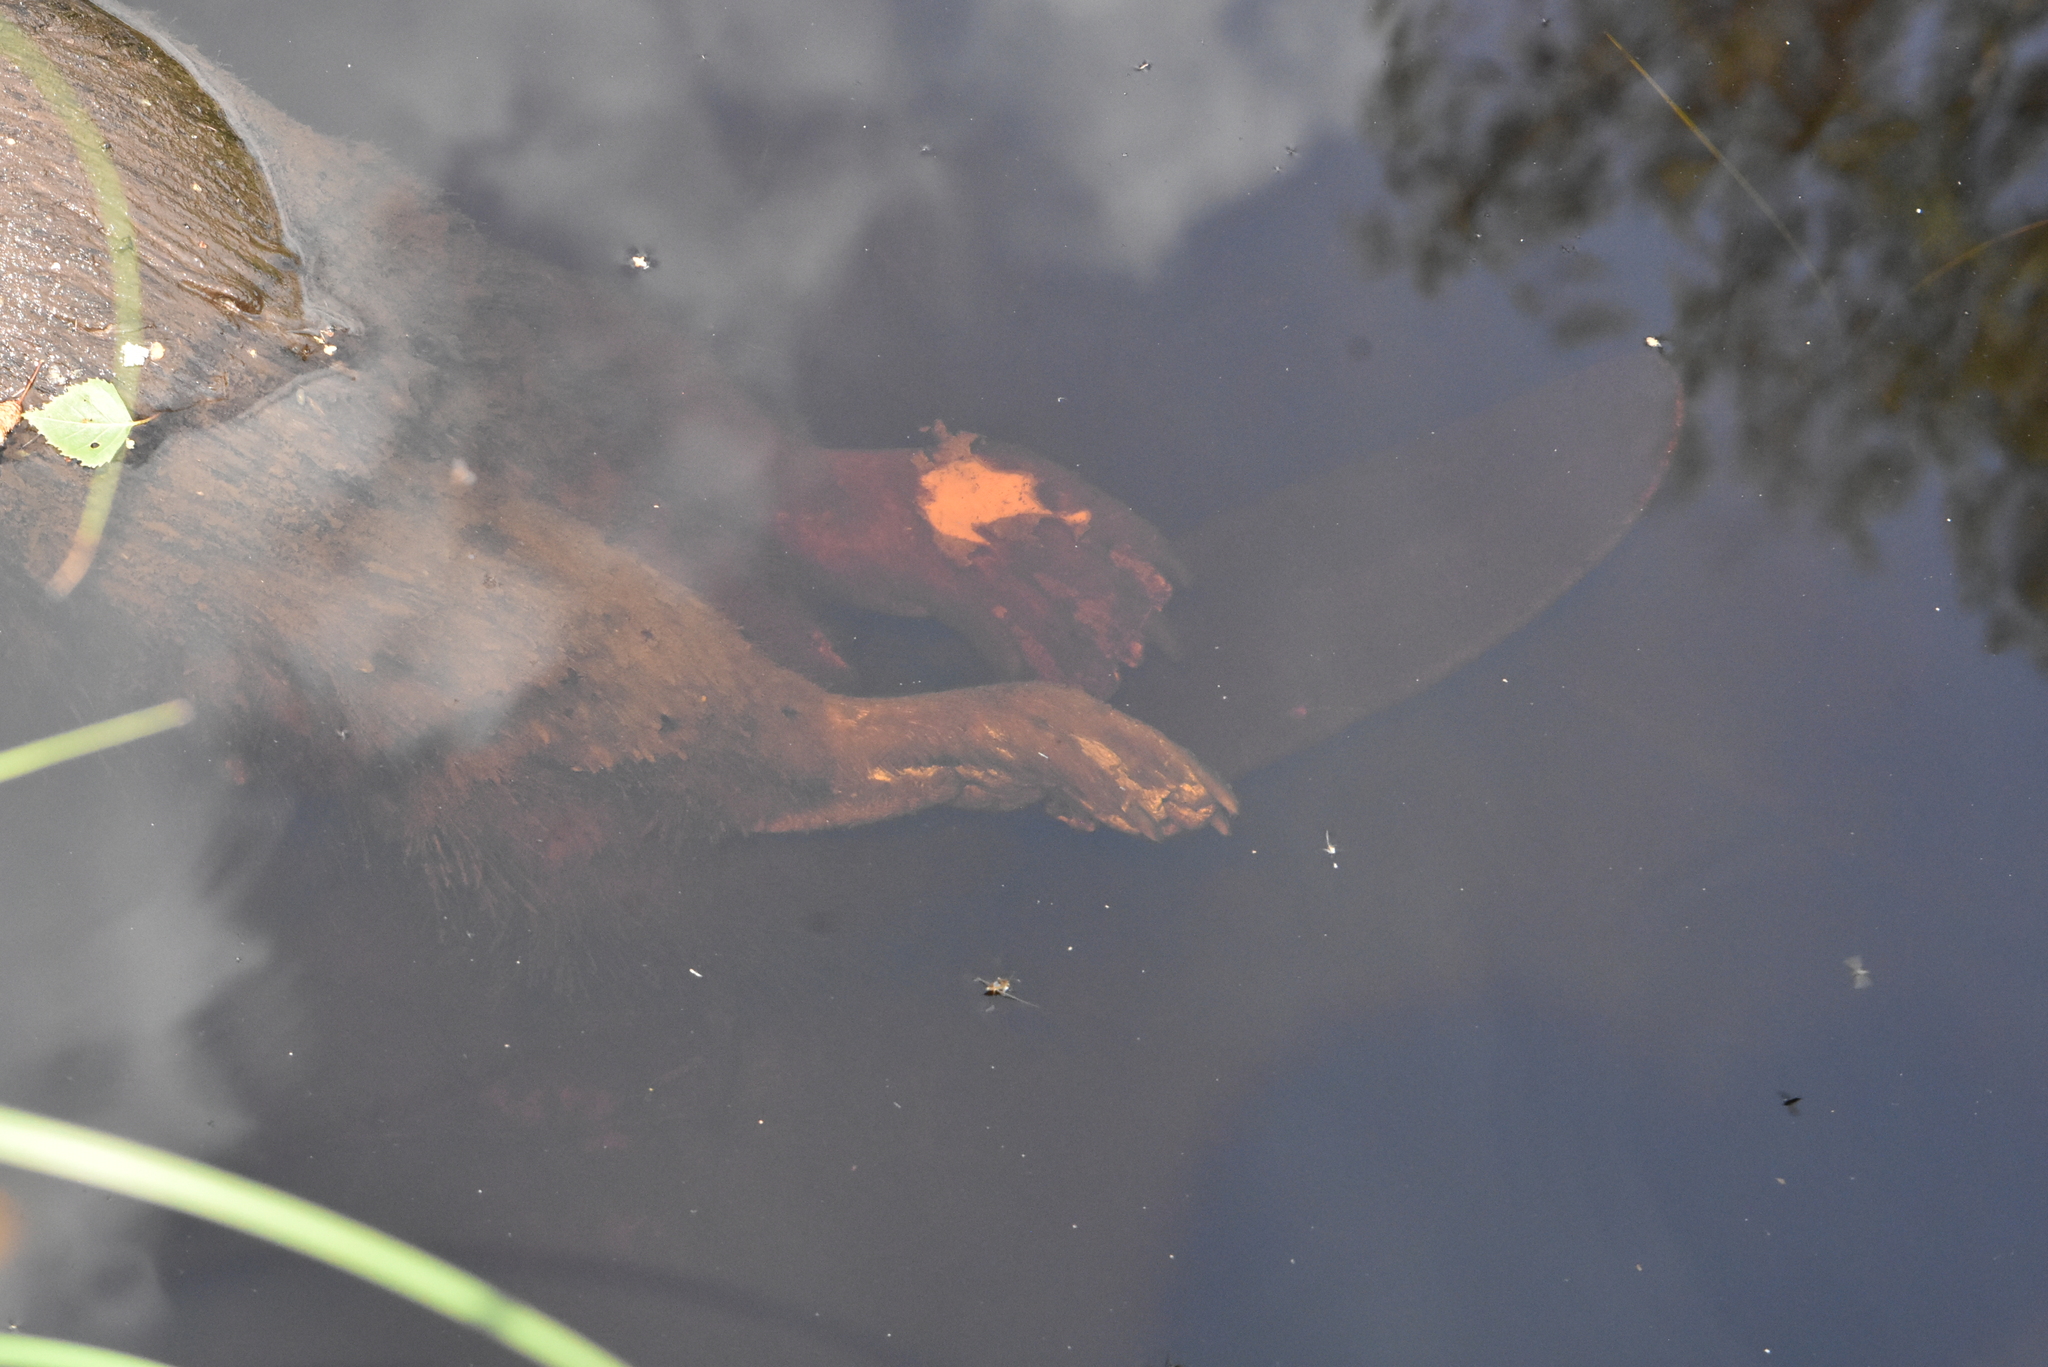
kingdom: Animalia
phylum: Chordata
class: Mammalia
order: Rodentia
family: Castoridae
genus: Castor
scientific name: Castor fiber
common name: Eurasian beaver
